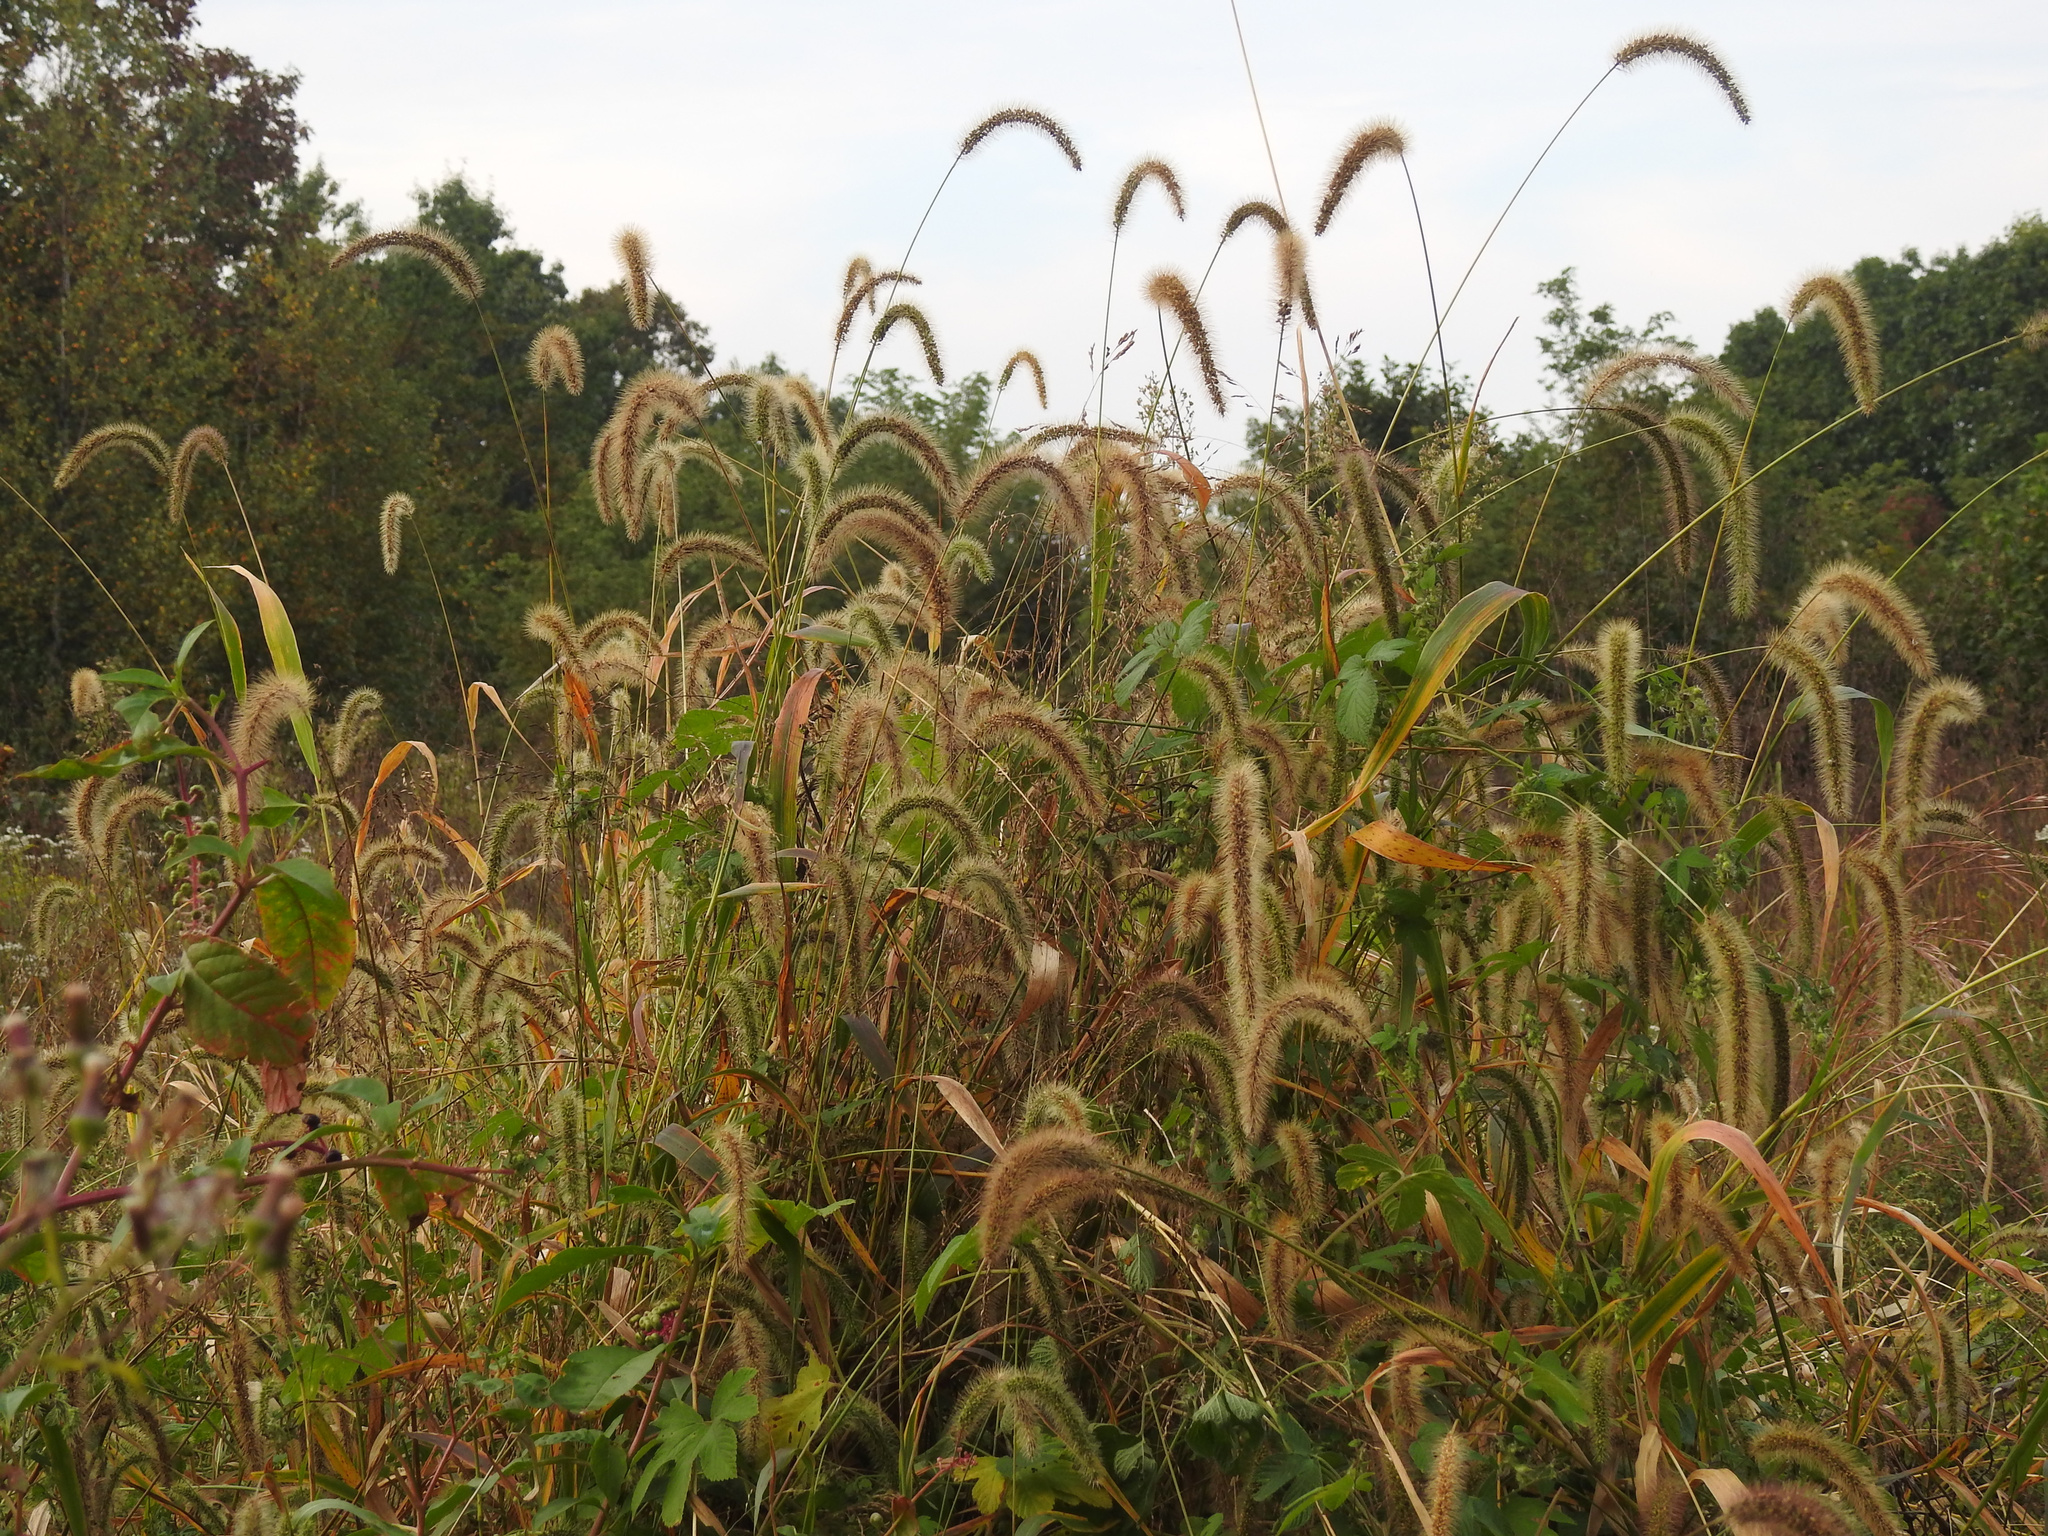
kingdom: Plantae
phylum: Tracheophyta
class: Liliopsida
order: Poales
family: Poaceae
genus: Setaria
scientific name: Setaria faberi
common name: Nodding bristle-grass
